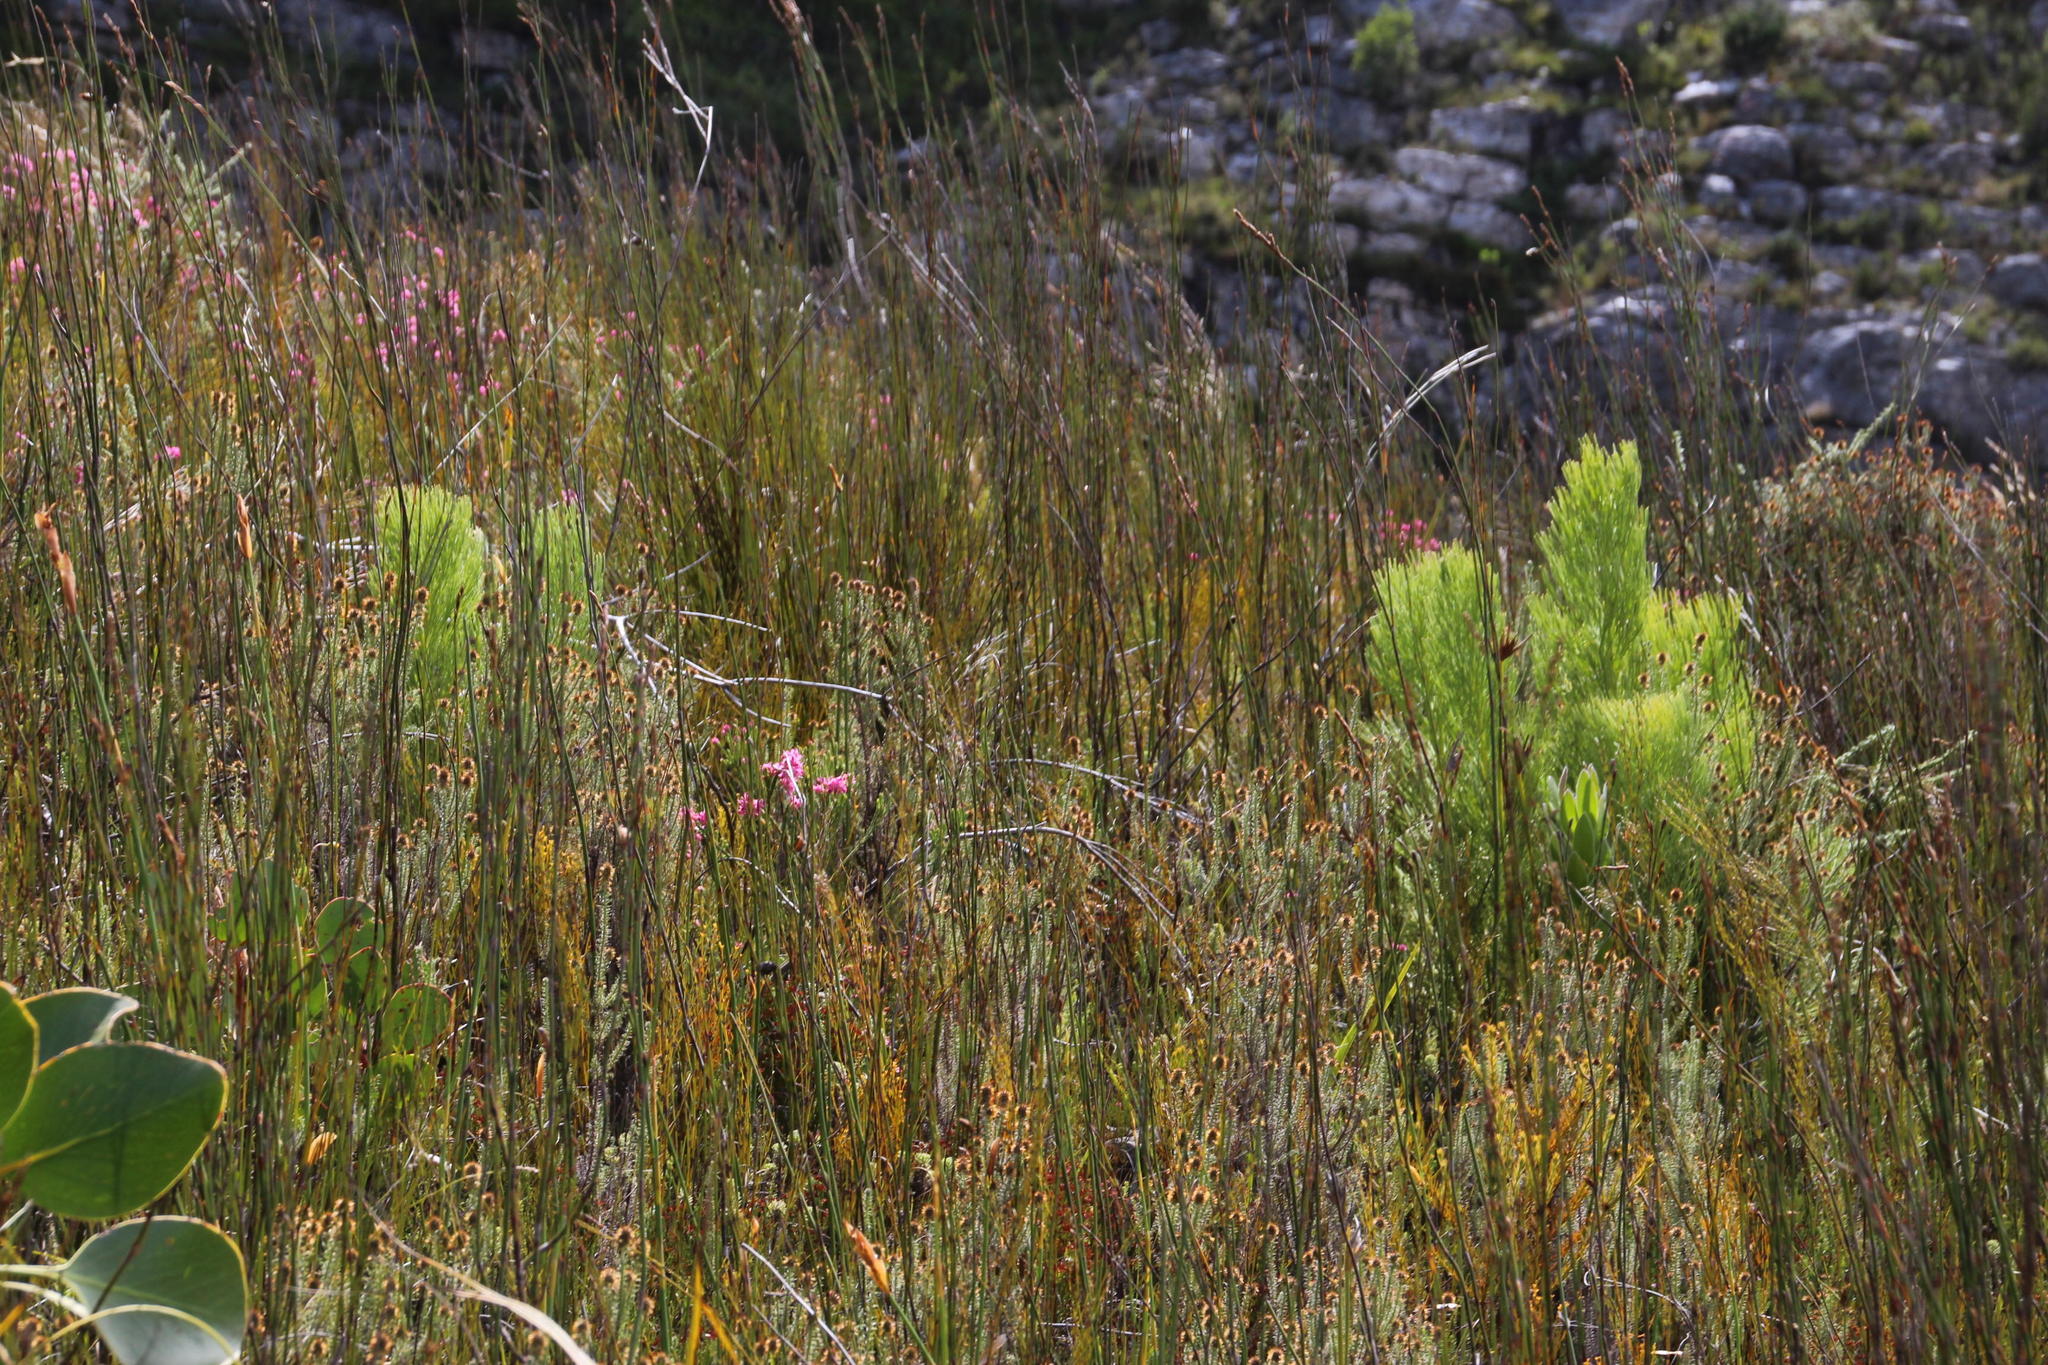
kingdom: Plantae
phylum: Tracheophyta
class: Magnoliopsida
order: Proteales
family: Proteaceae
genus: Paranomus
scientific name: Paranomus sceptrum-gustavianus
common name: King gustav's sceptre
